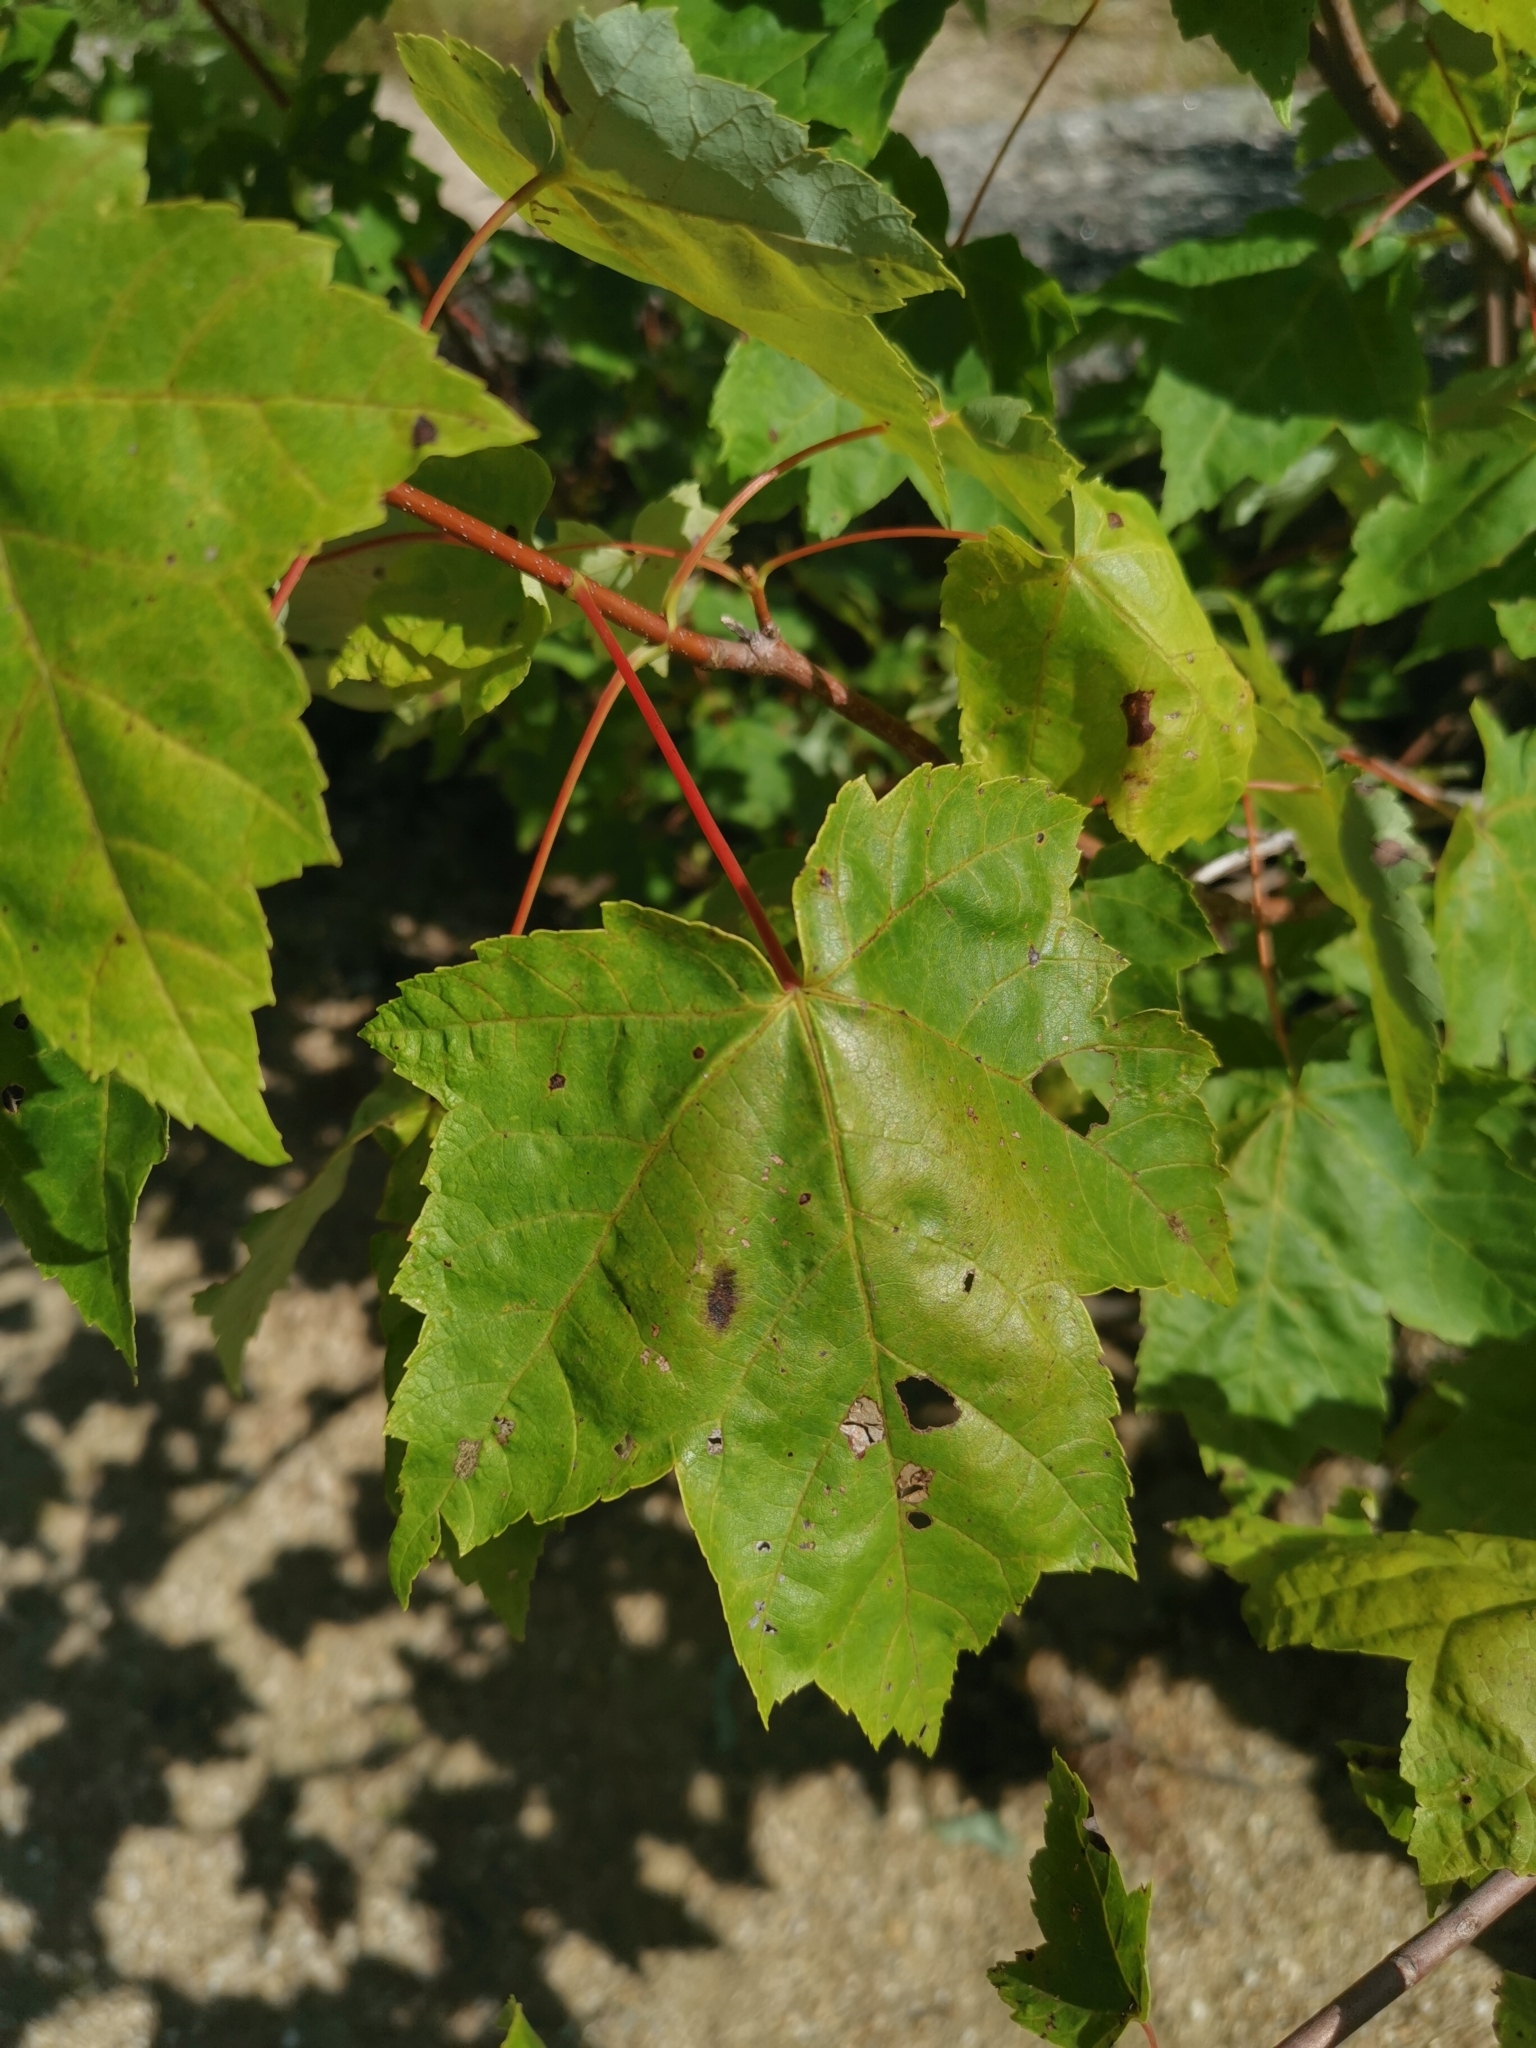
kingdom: Plantae
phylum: Tracheophyta
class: Magnoliopsida
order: Sapindales
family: Sapindaceae
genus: Acer
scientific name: Acer rubrum
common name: Red maple
